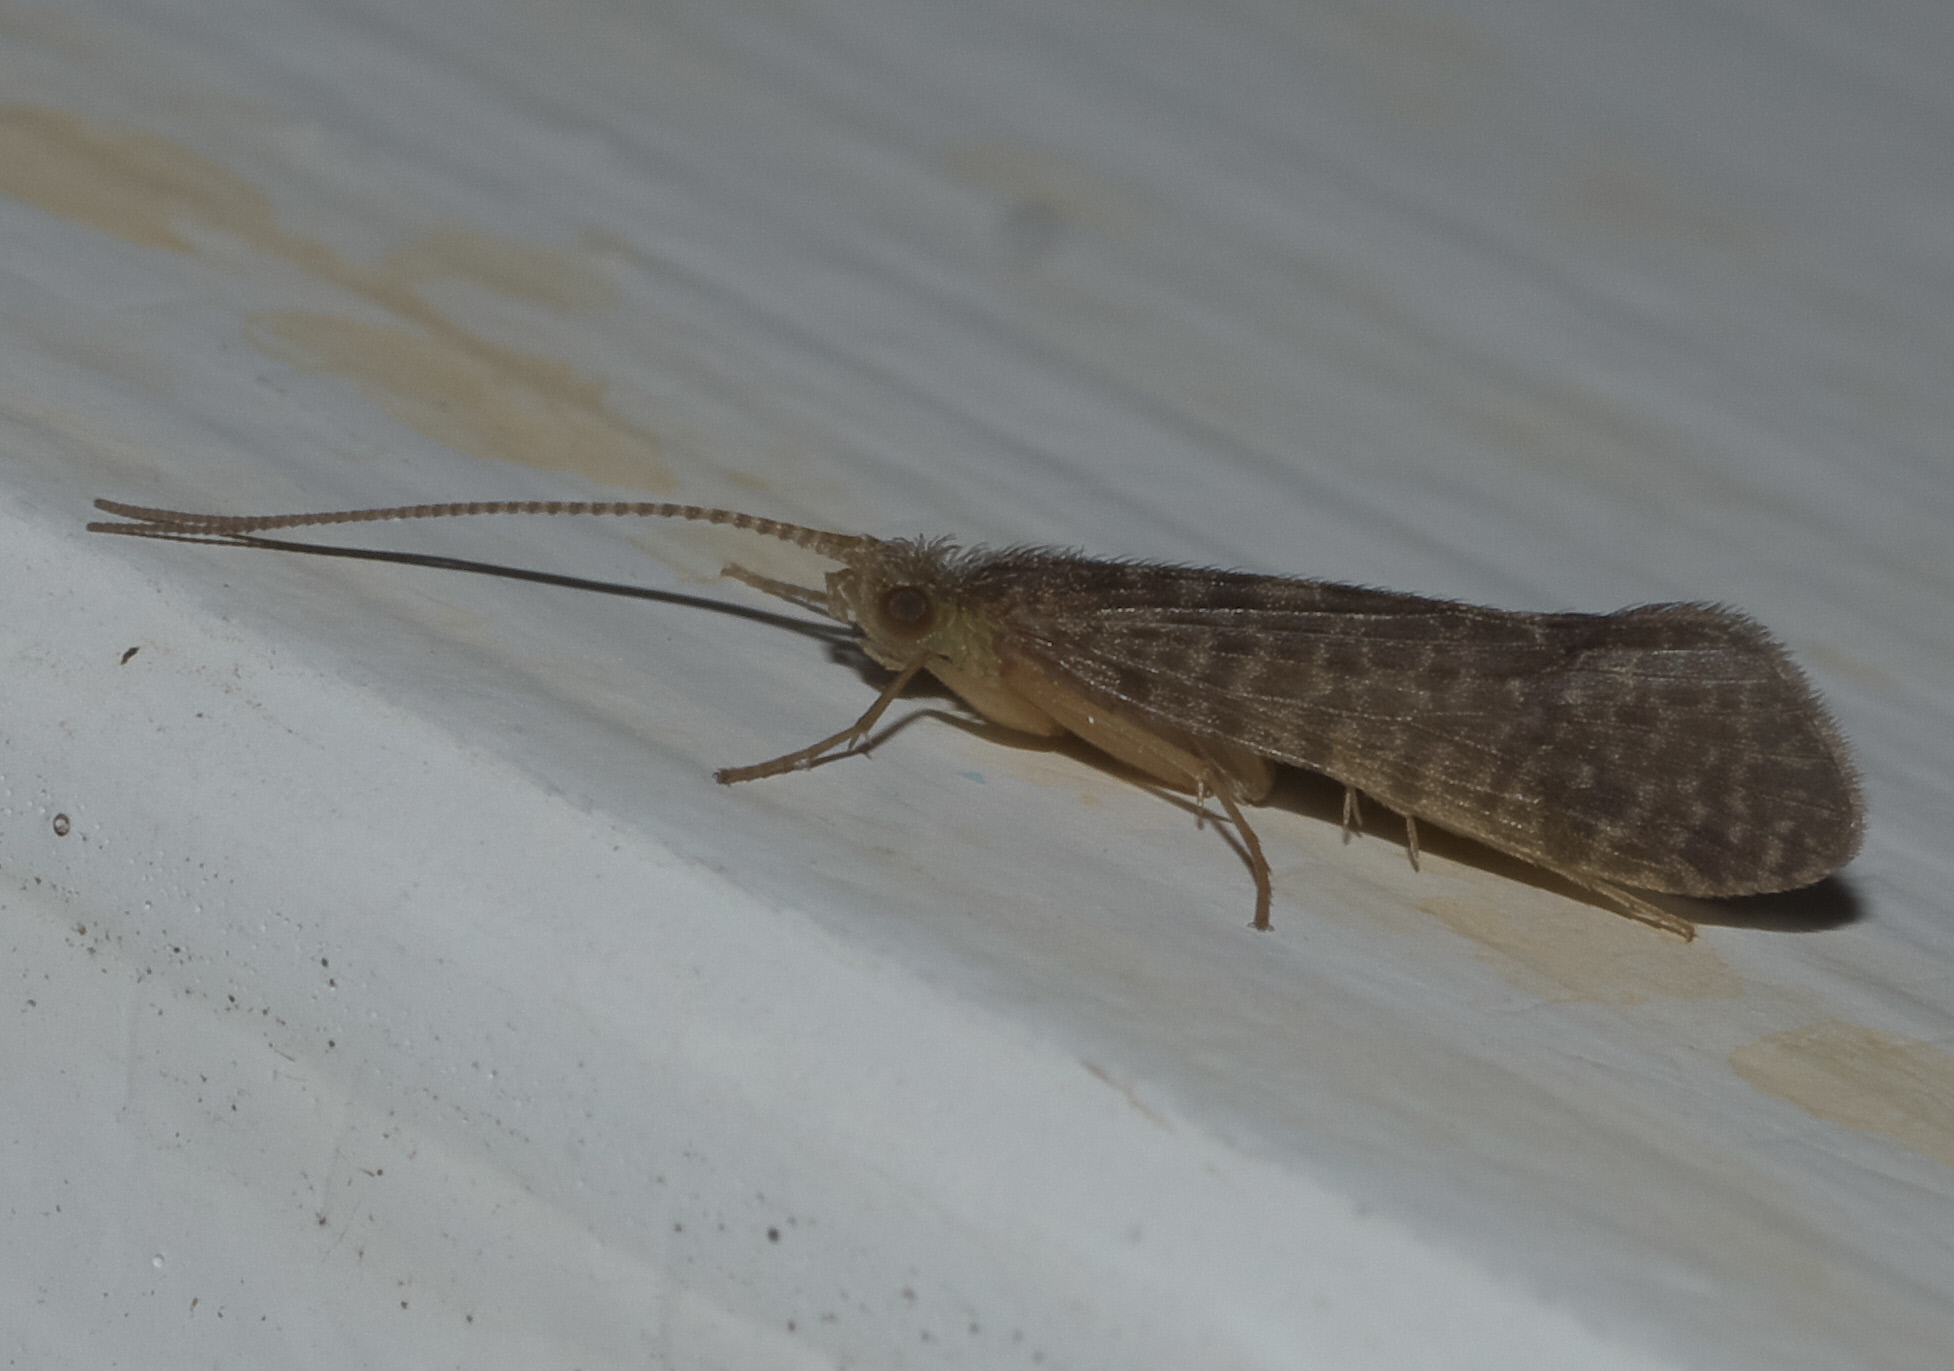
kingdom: Animalia
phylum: Arthropoda
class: Insecta
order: Trichoptera
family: Chathamiidae
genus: Philanisus
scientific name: Philanisus plebeius
